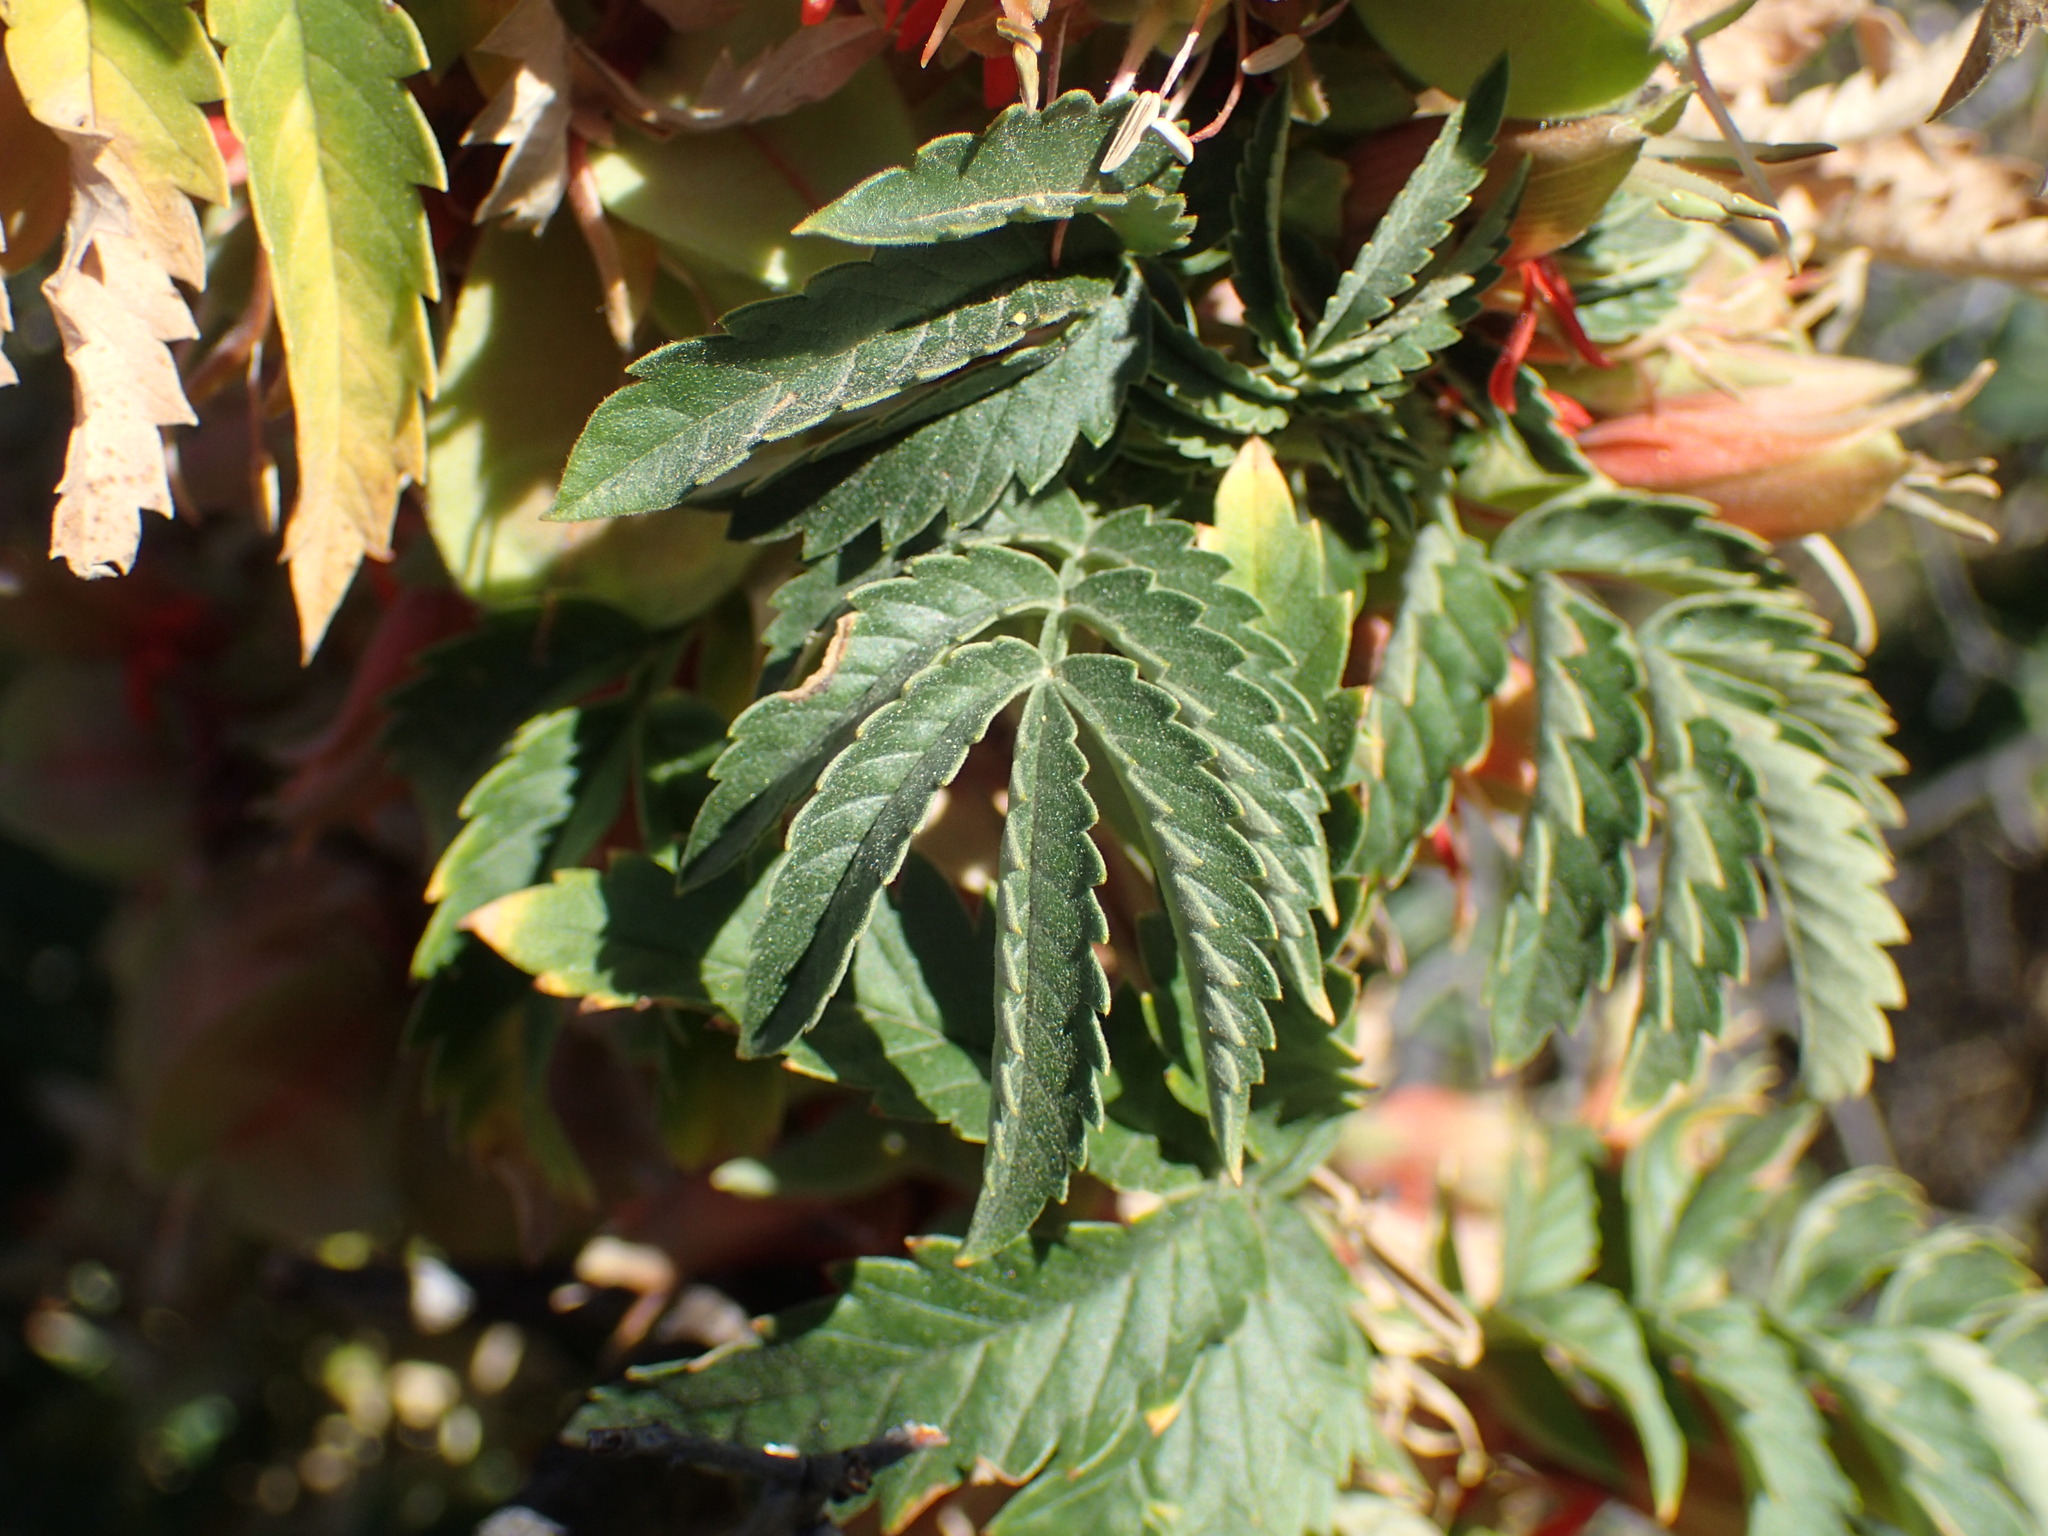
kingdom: Plantae
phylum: Tracheophyta
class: Magnoliopsida
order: Geraniales
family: Melianthaceae
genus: Melianthus
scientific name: Melianthus comosus
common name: Touch-me-not
